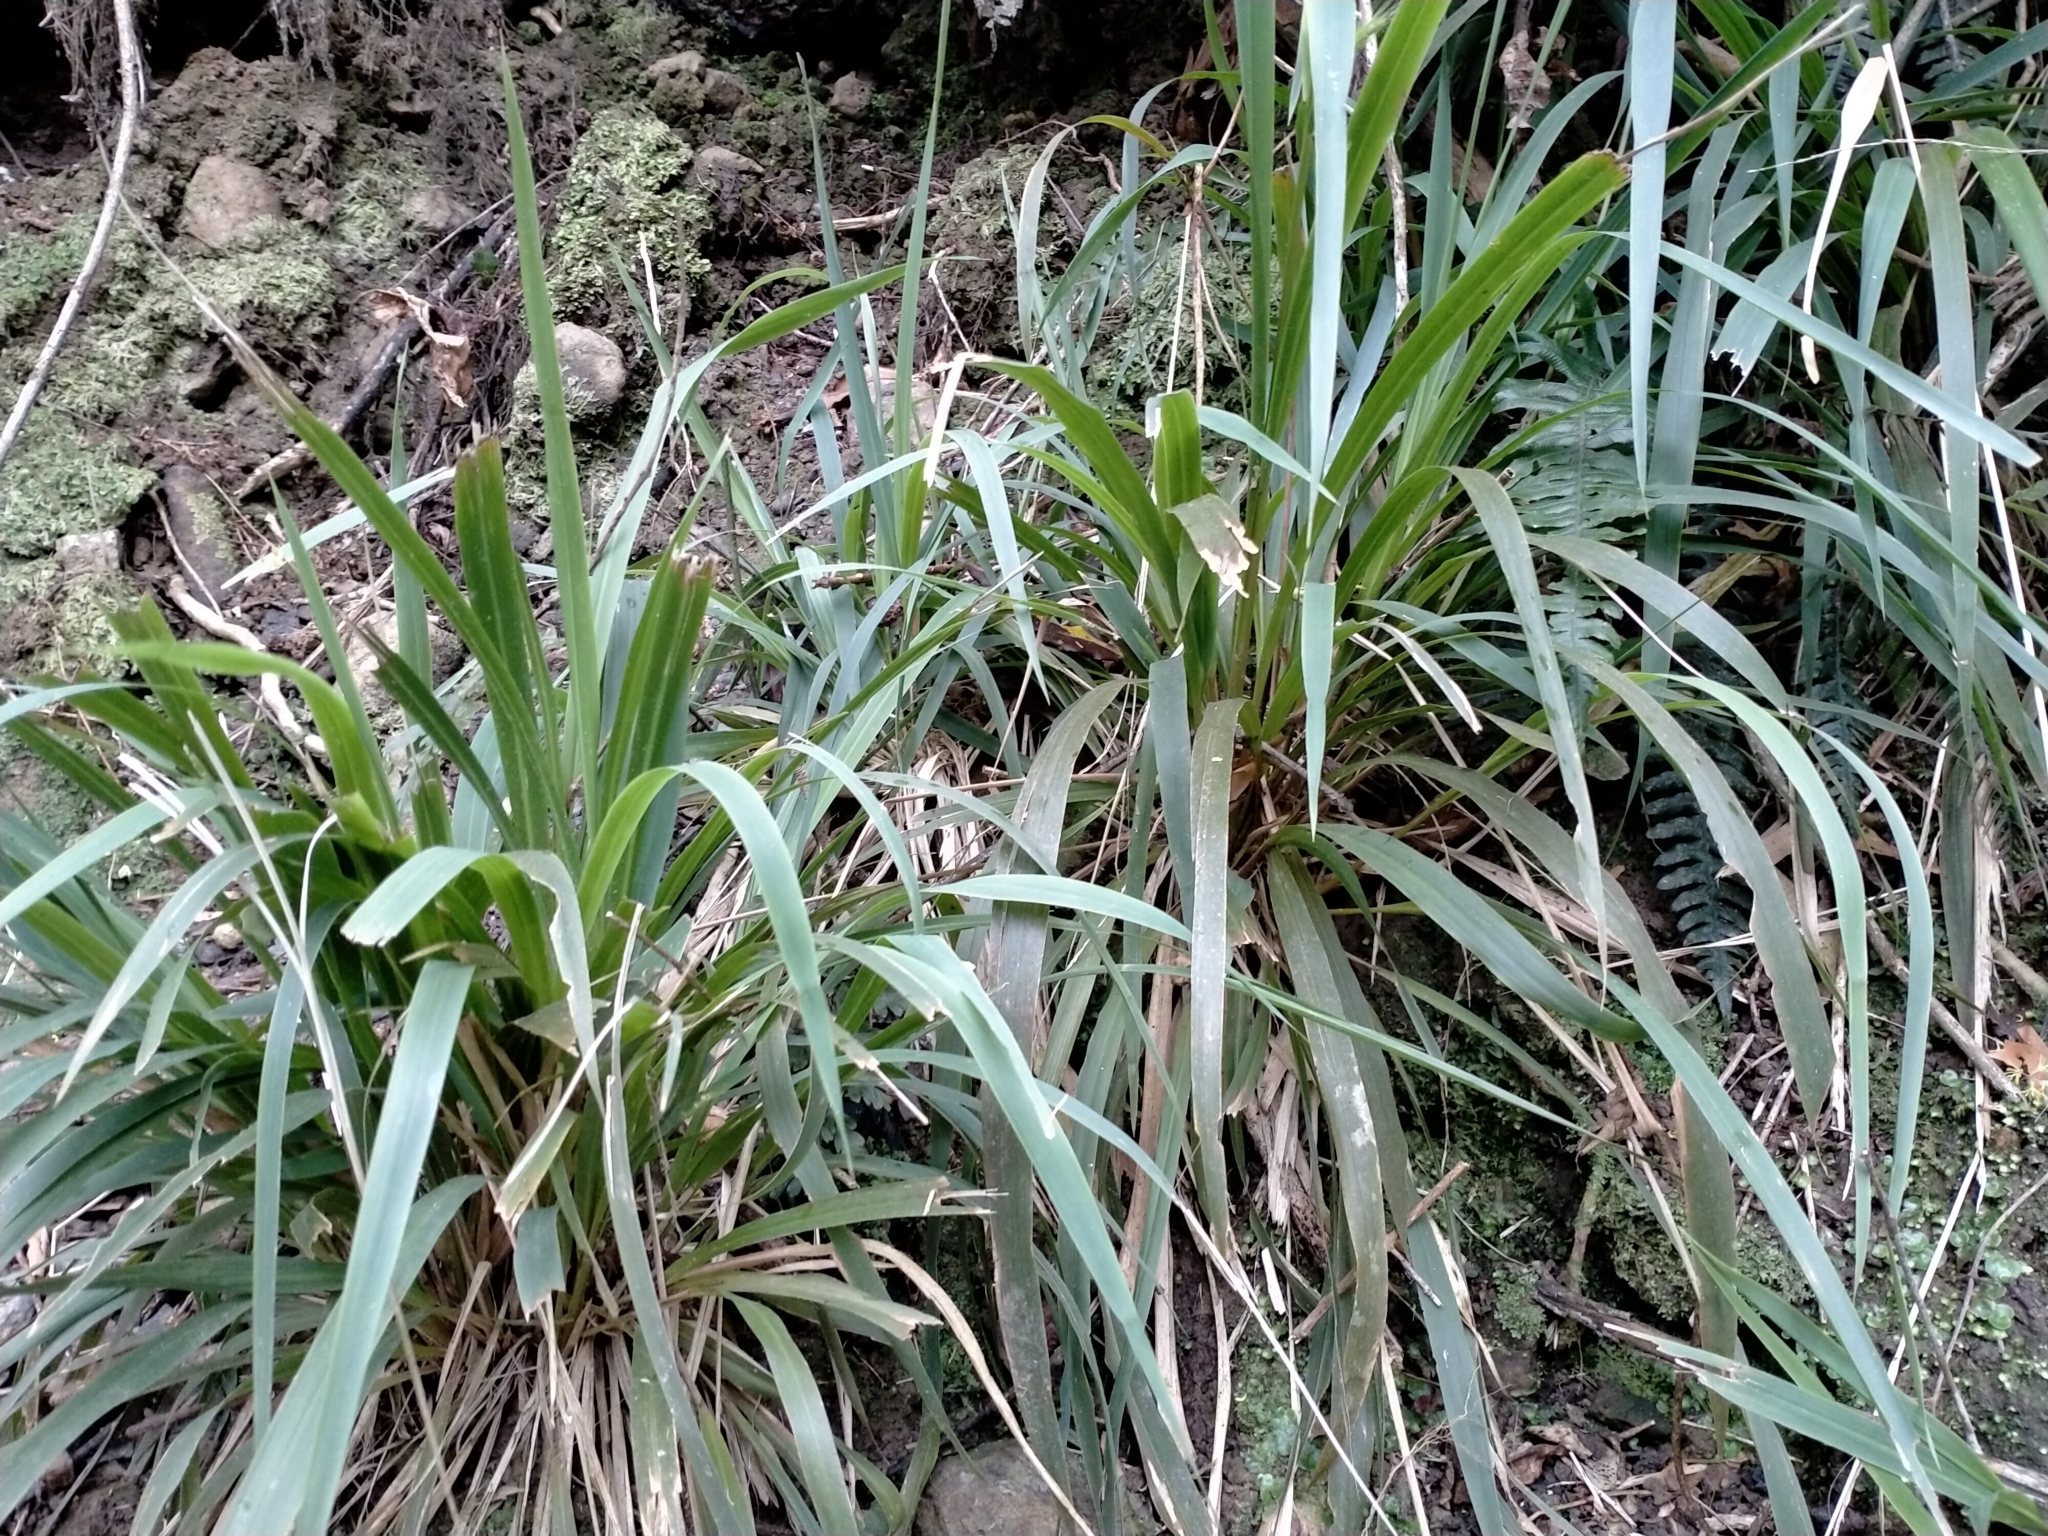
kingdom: Plantae
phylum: Tracheophyta
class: Liliopsida
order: Poales
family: Poaceae
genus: Ehrharta
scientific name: Ehrharta diplax
